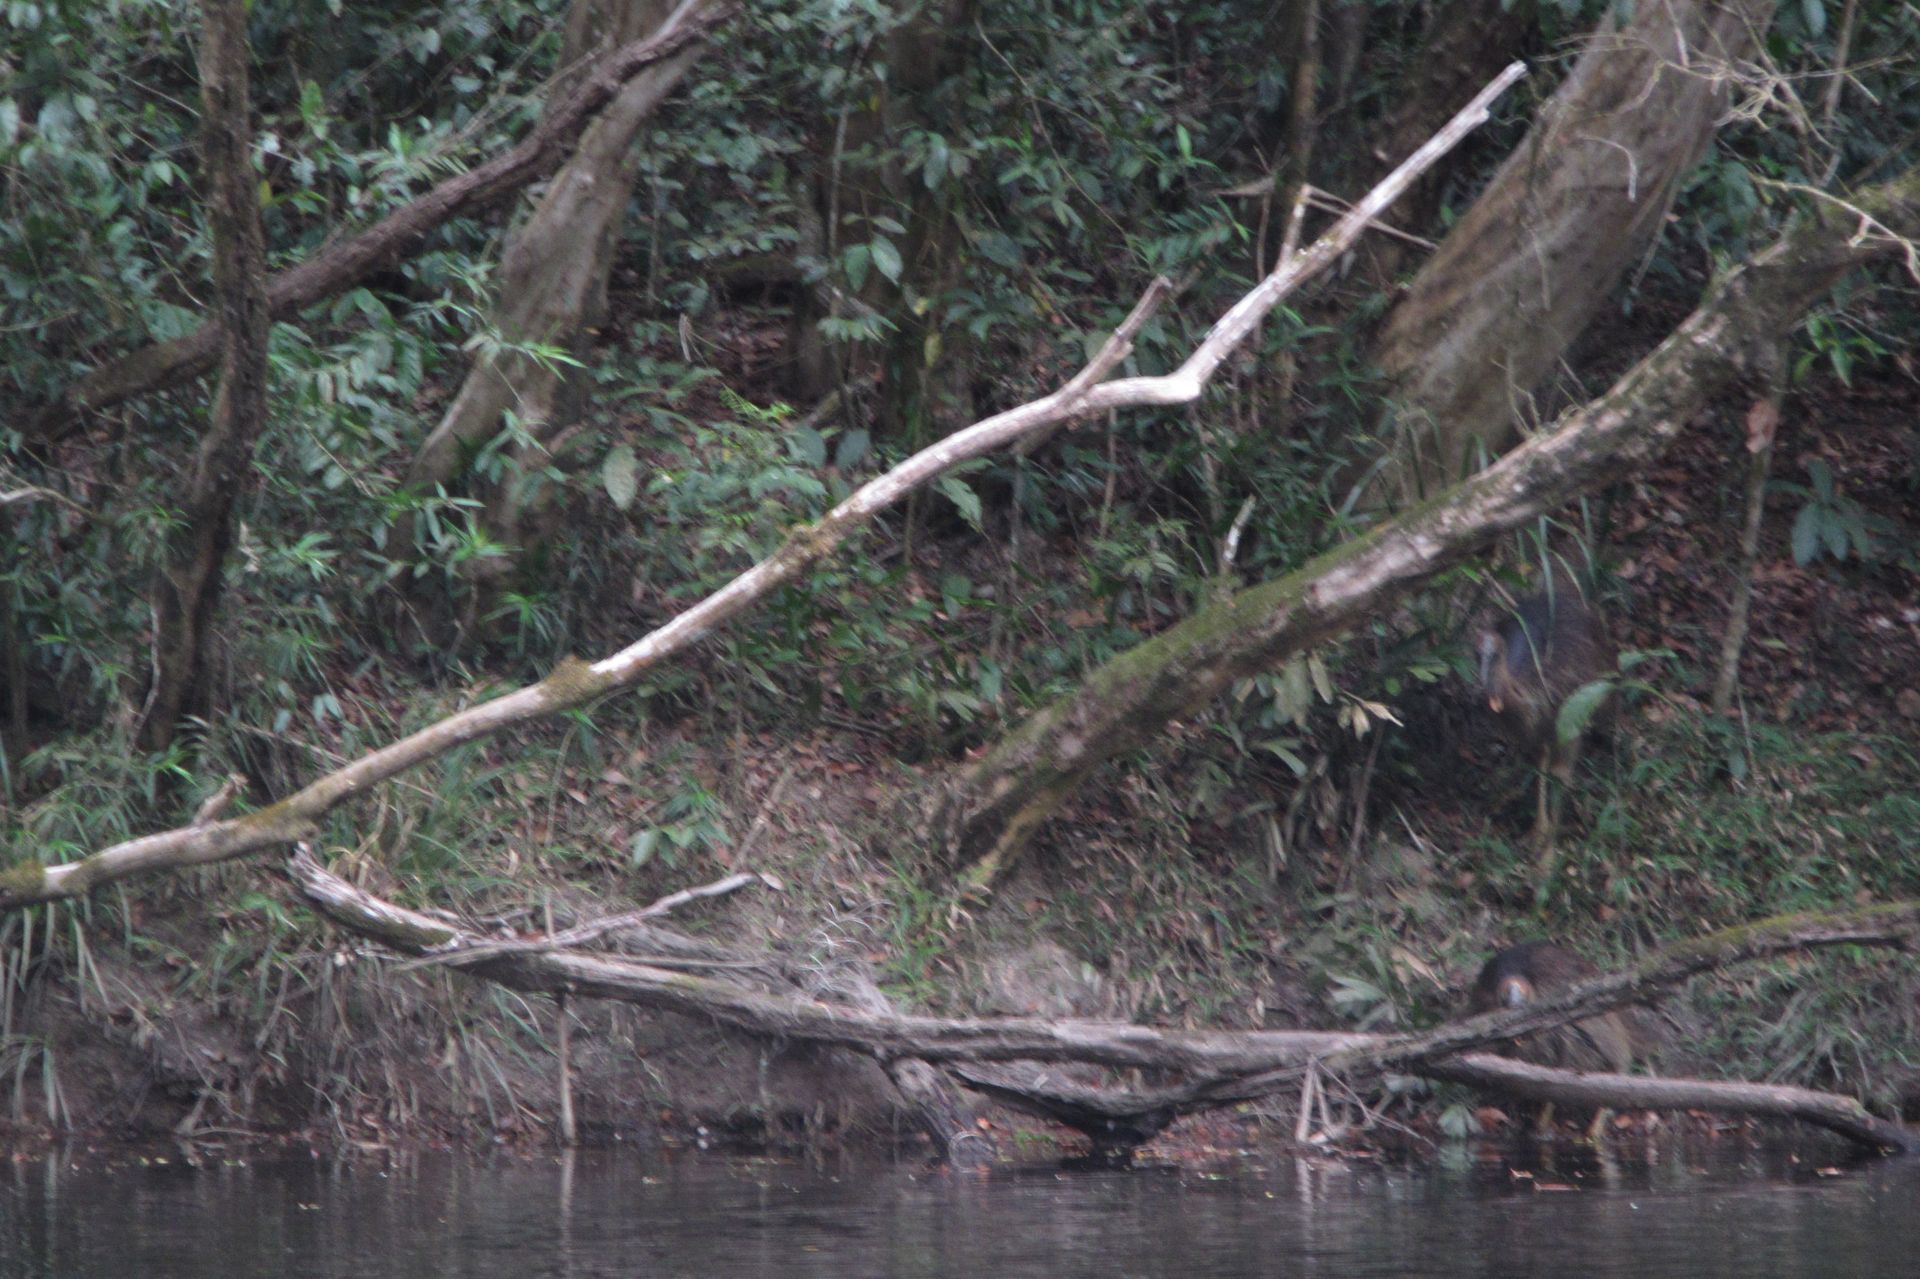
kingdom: Animalia
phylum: Chordata
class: Aves
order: Casuariiformes
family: Casuariidae
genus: Casuarius
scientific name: Casuarius casuarius
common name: Southern cassowary
